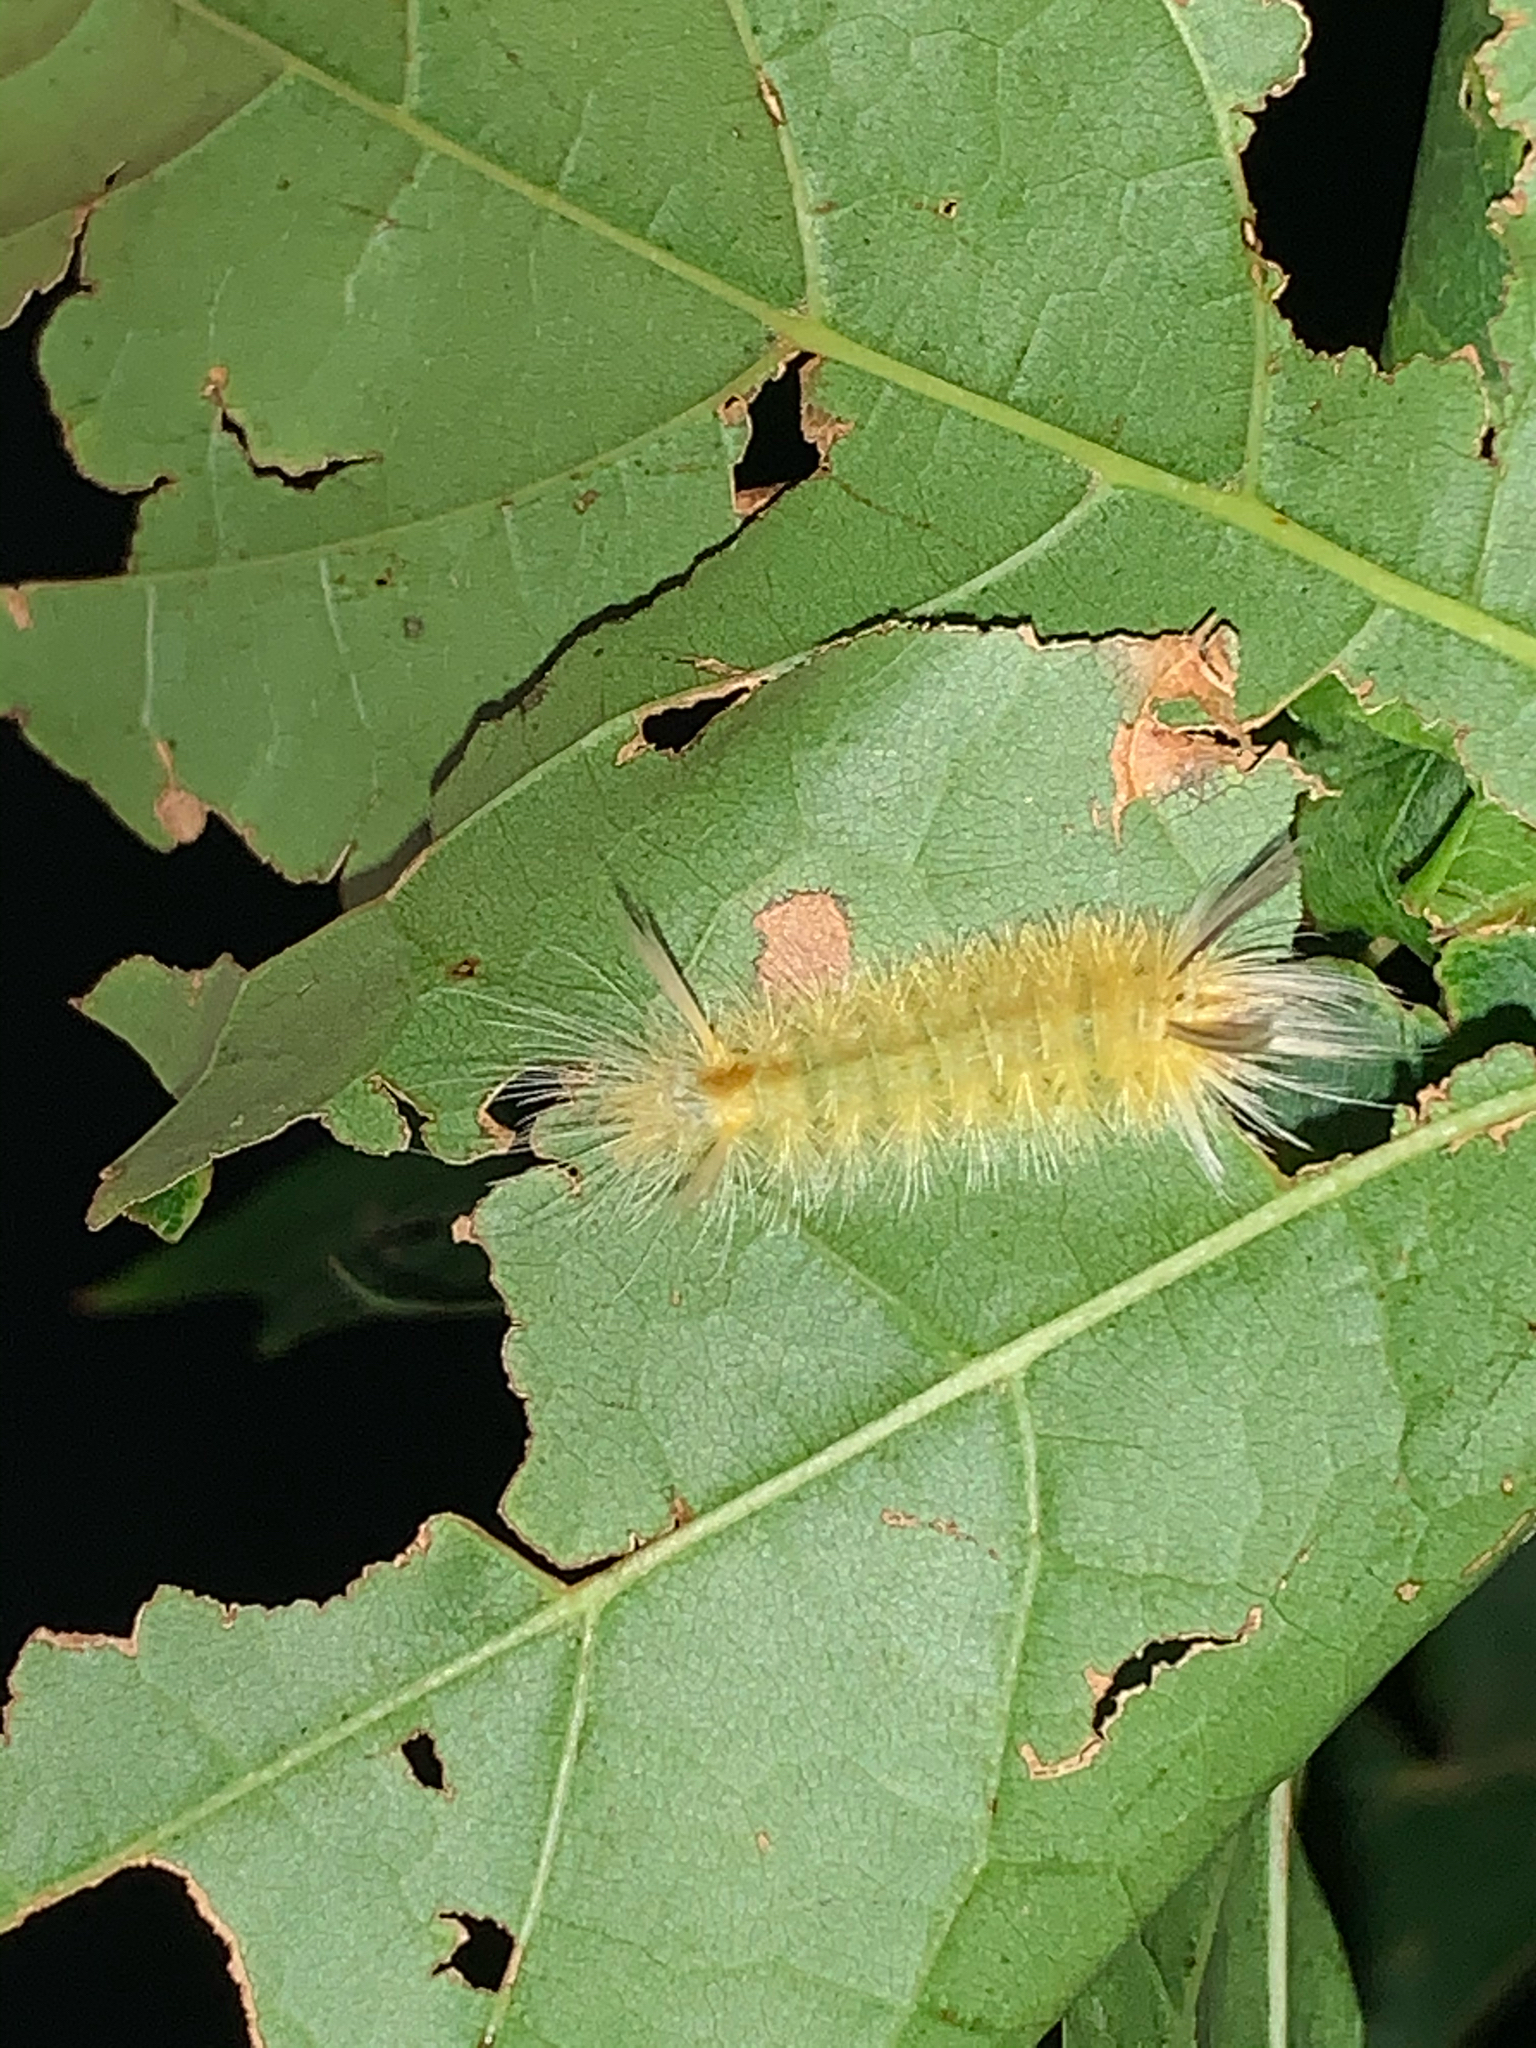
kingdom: Animalia
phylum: Arthropoda
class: Insecta
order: Lepidoptera
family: Erebidae
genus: Halysidota
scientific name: Halysidota tessellaris
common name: Banded tussock moth
